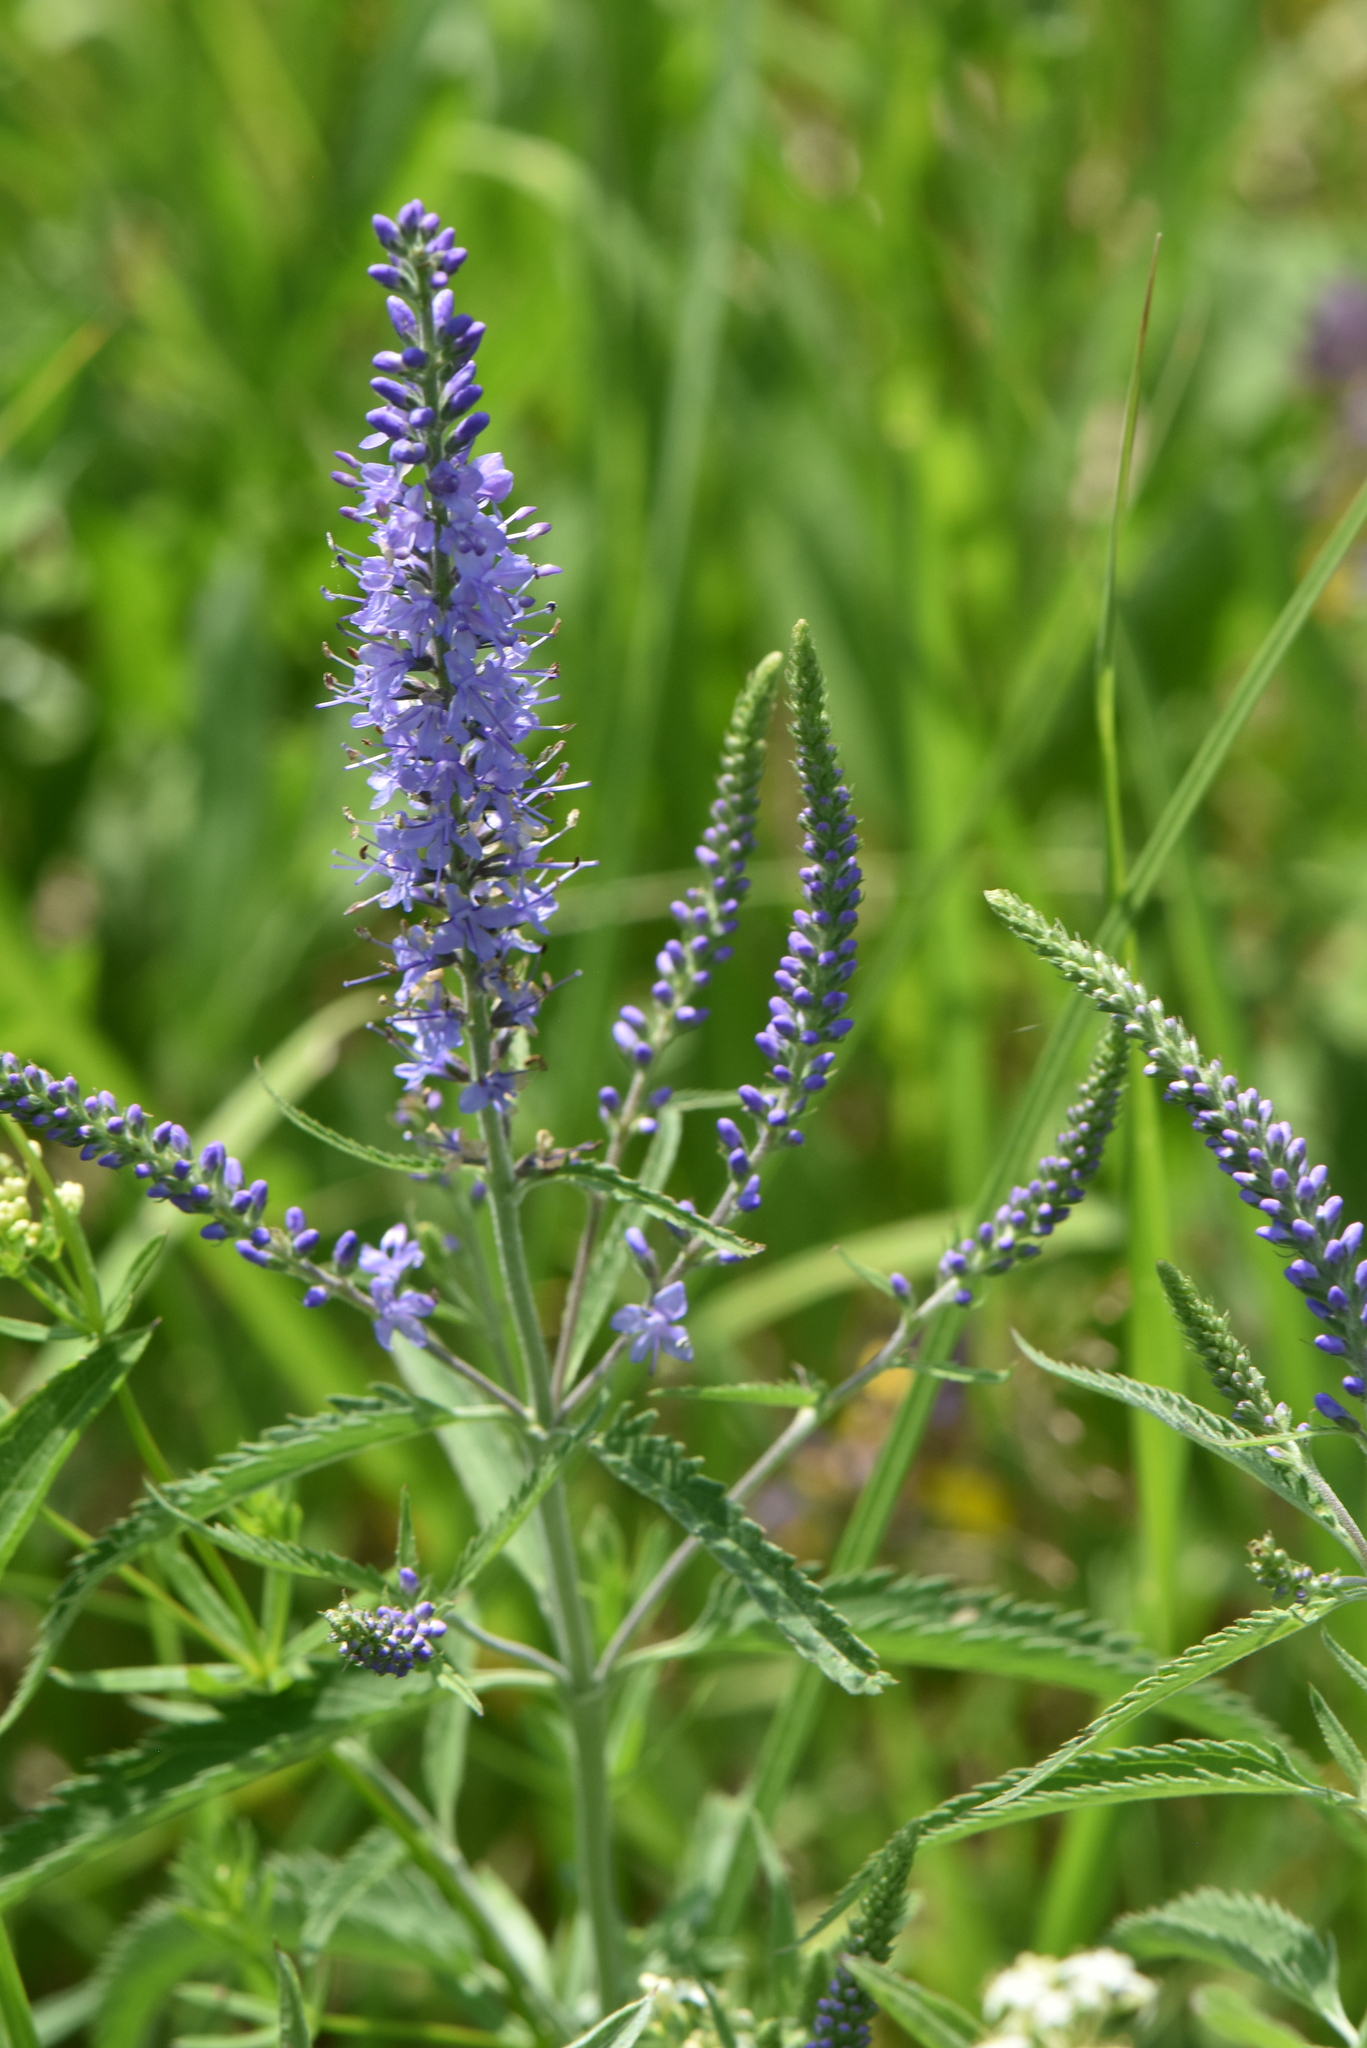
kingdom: Plantae
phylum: Tracheophyta
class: Magnoliopsida
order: Lamiales
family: Plantaginaceae
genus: Veronica
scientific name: Veronica longifolia
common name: Garden speedwell
